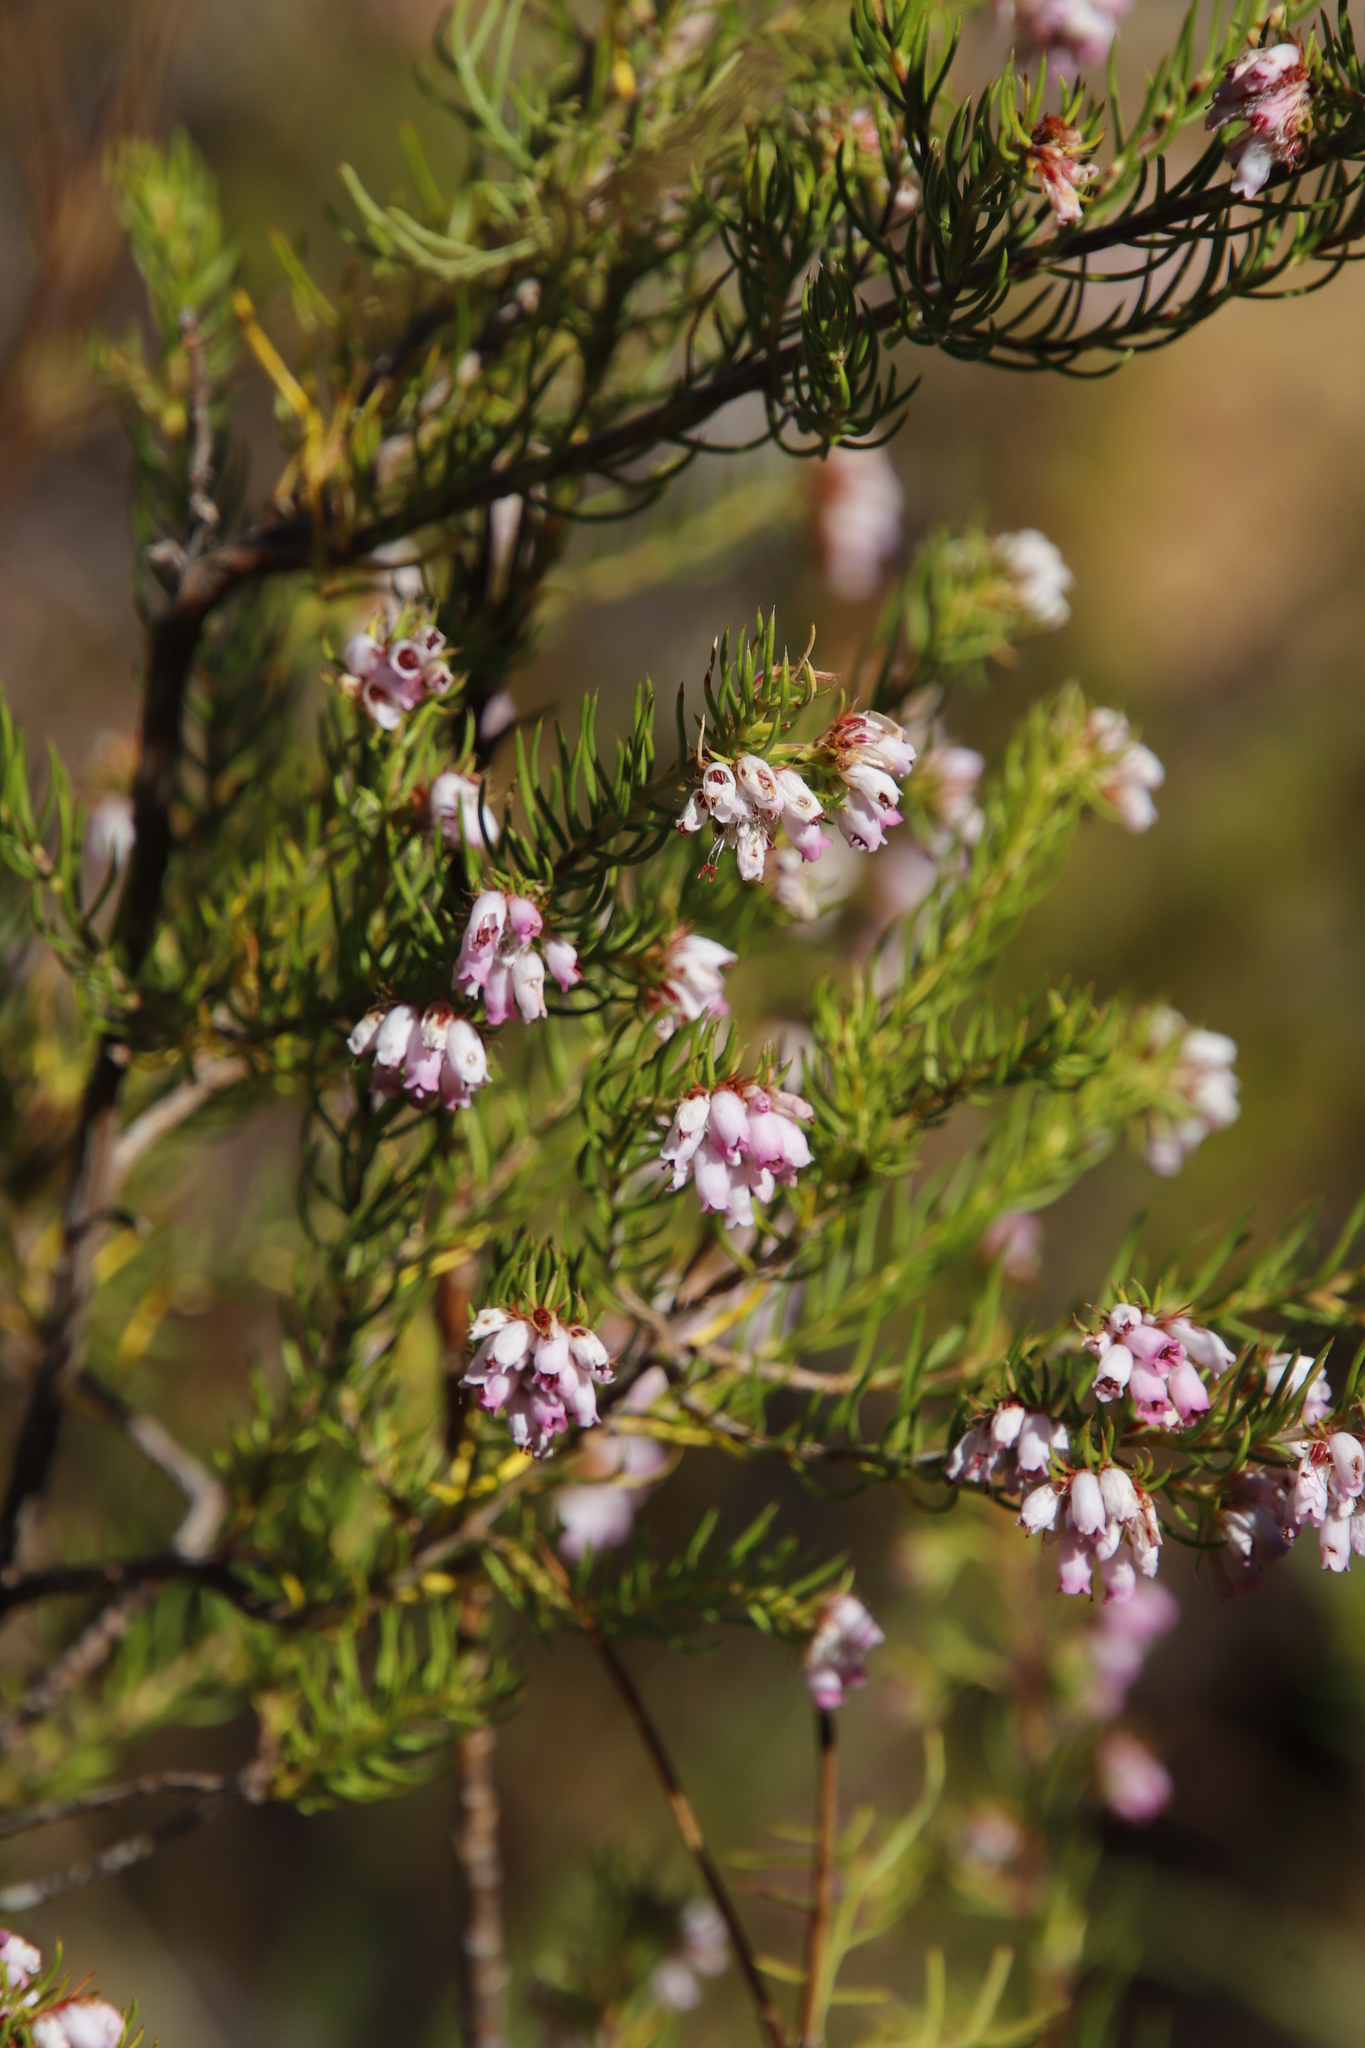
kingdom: Plantae
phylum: Tracheophyta
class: Magnoliopsida
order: Ericales
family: Ericaceae
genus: Erica
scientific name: Erica subulata
